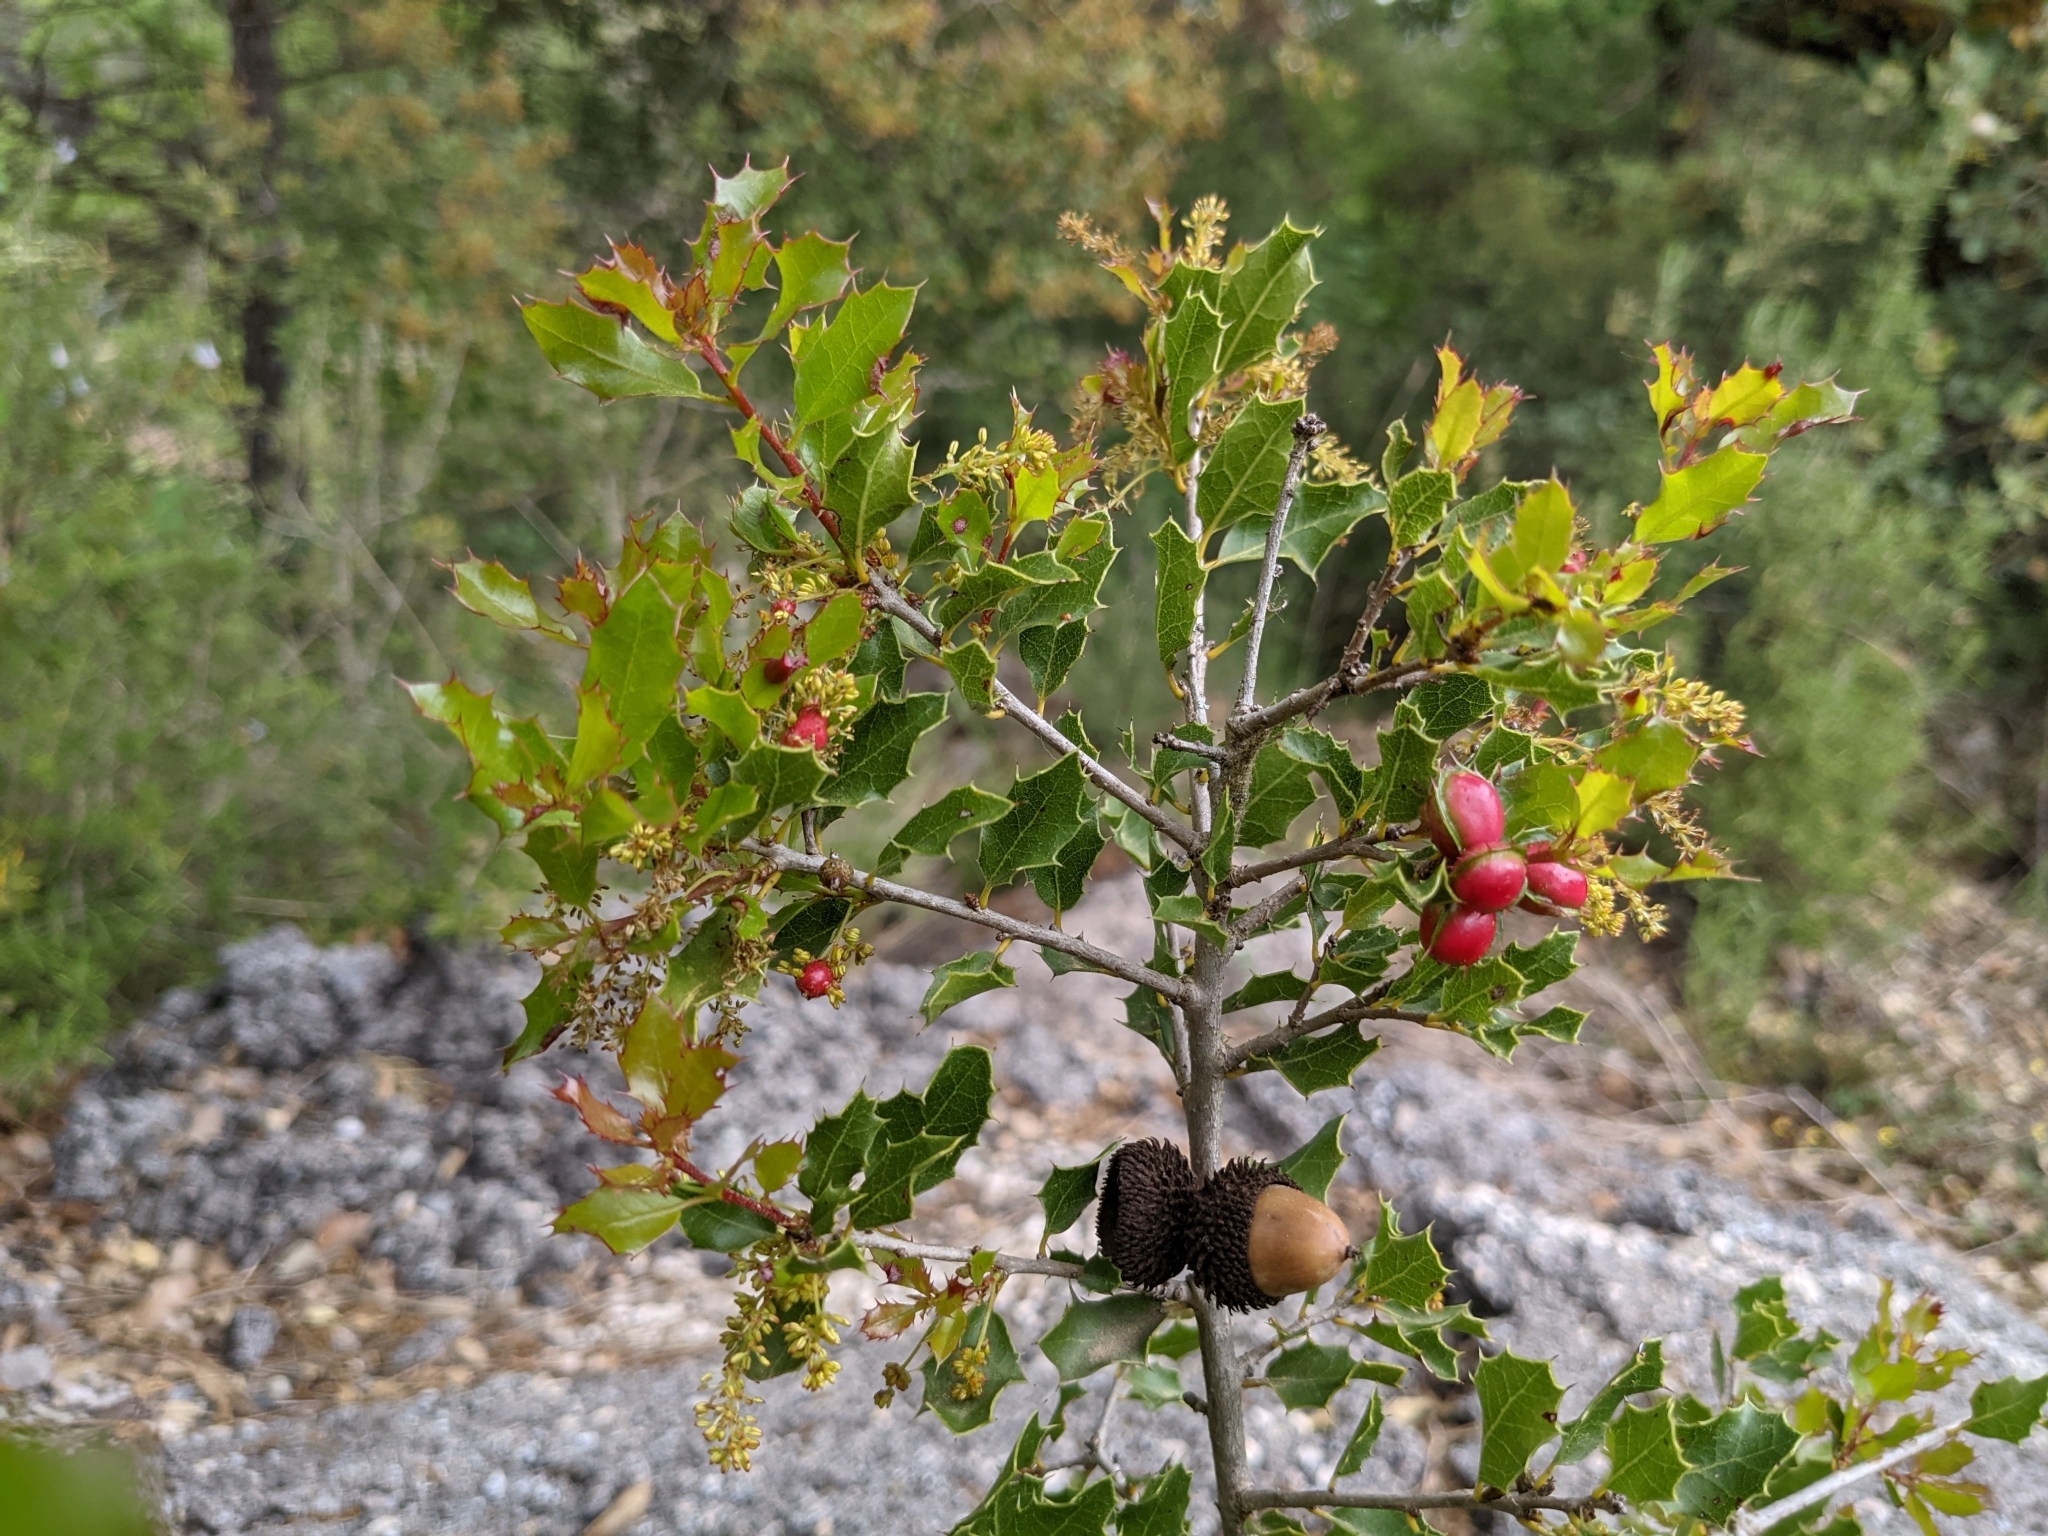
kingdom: Plantae
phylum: Tracheophyta
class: Magnoliopsida
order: Fagales
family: Fagaceae
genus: Quercus
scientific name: Quercus coccifera
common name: Kermes oak
